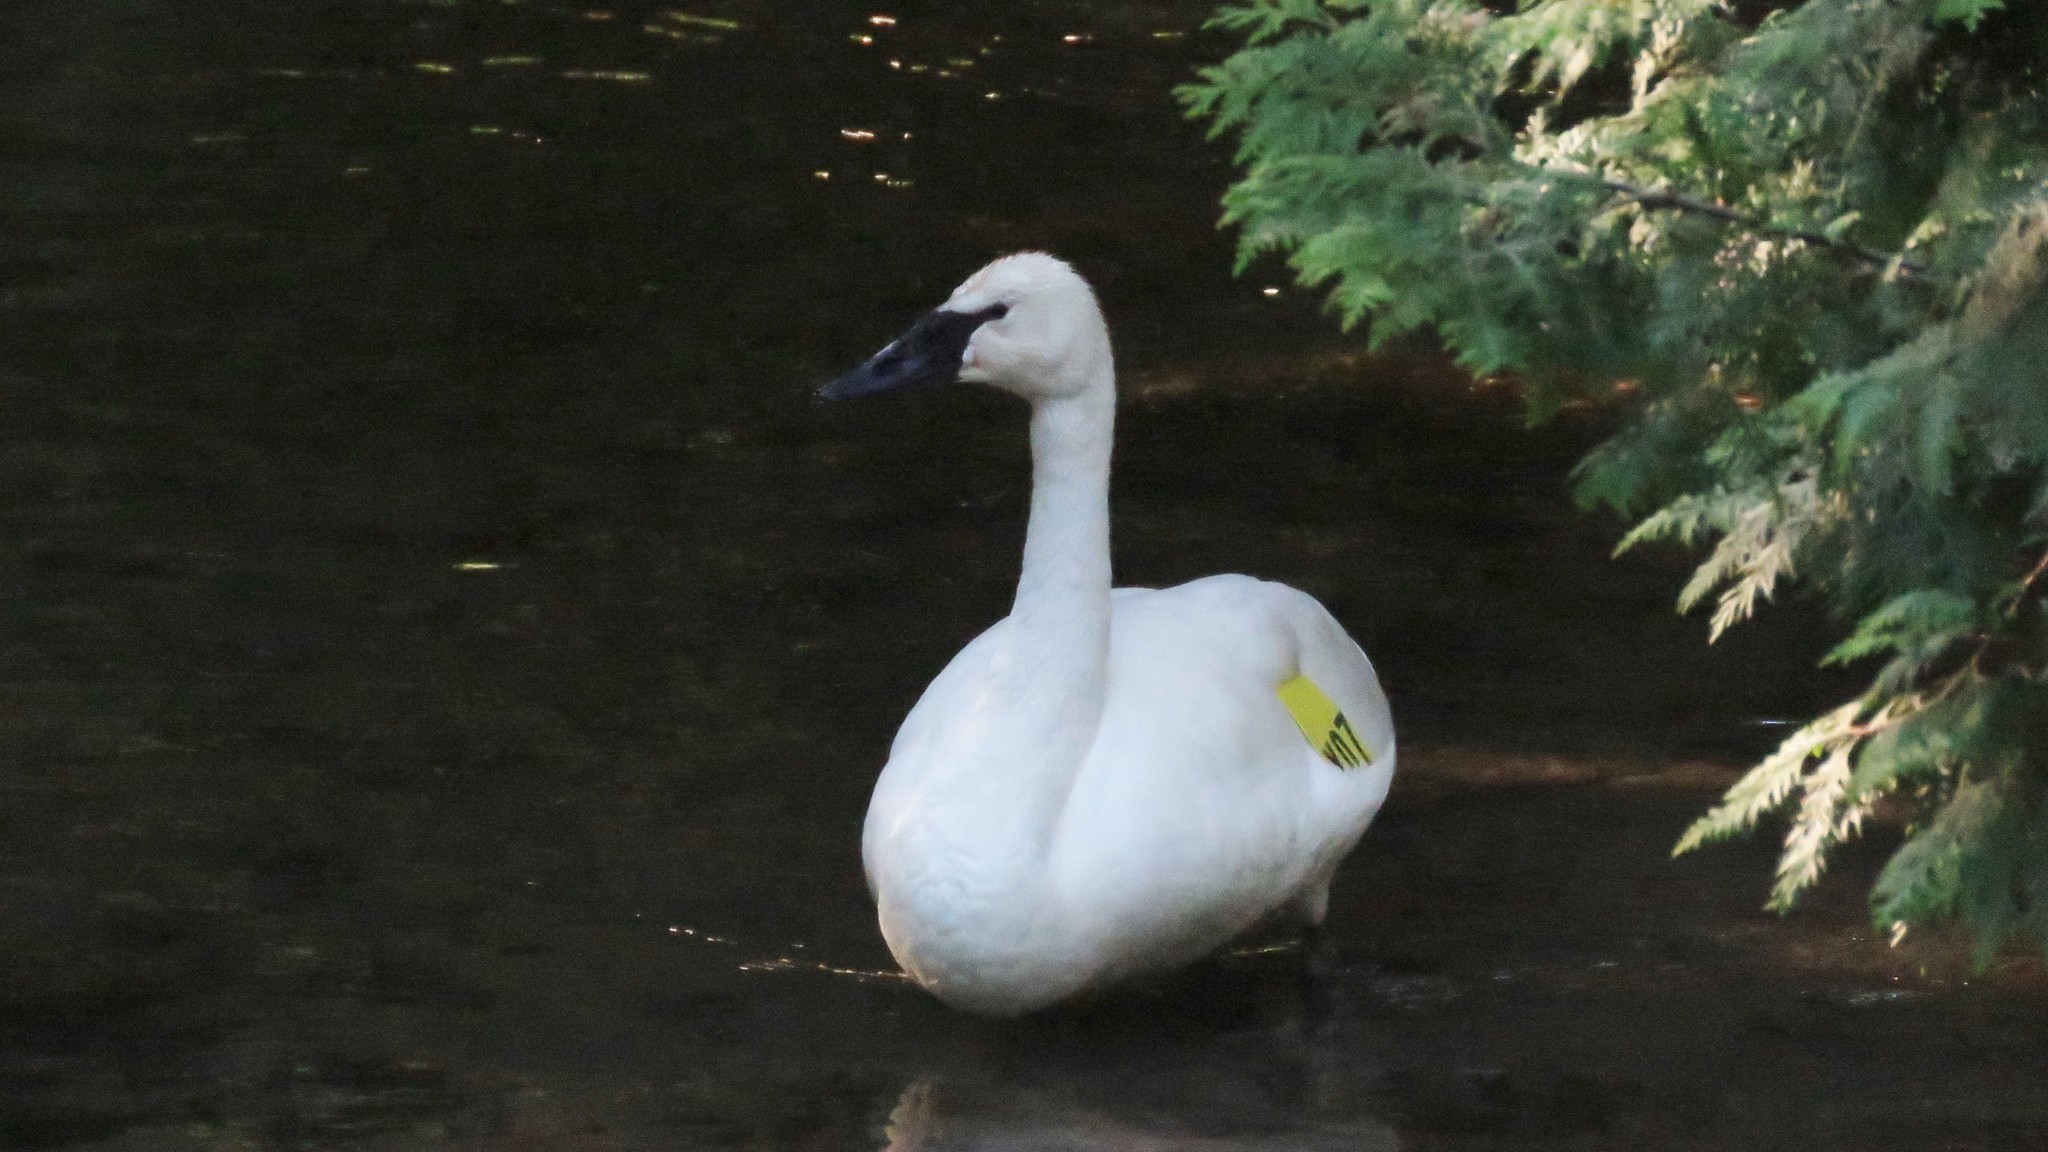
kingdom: Animalia
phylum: Chordata
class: Aves
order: Anseriformes
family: Anatidae
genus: Cygnus
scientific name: Cygnus buccinator
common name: Trumpeter swan
